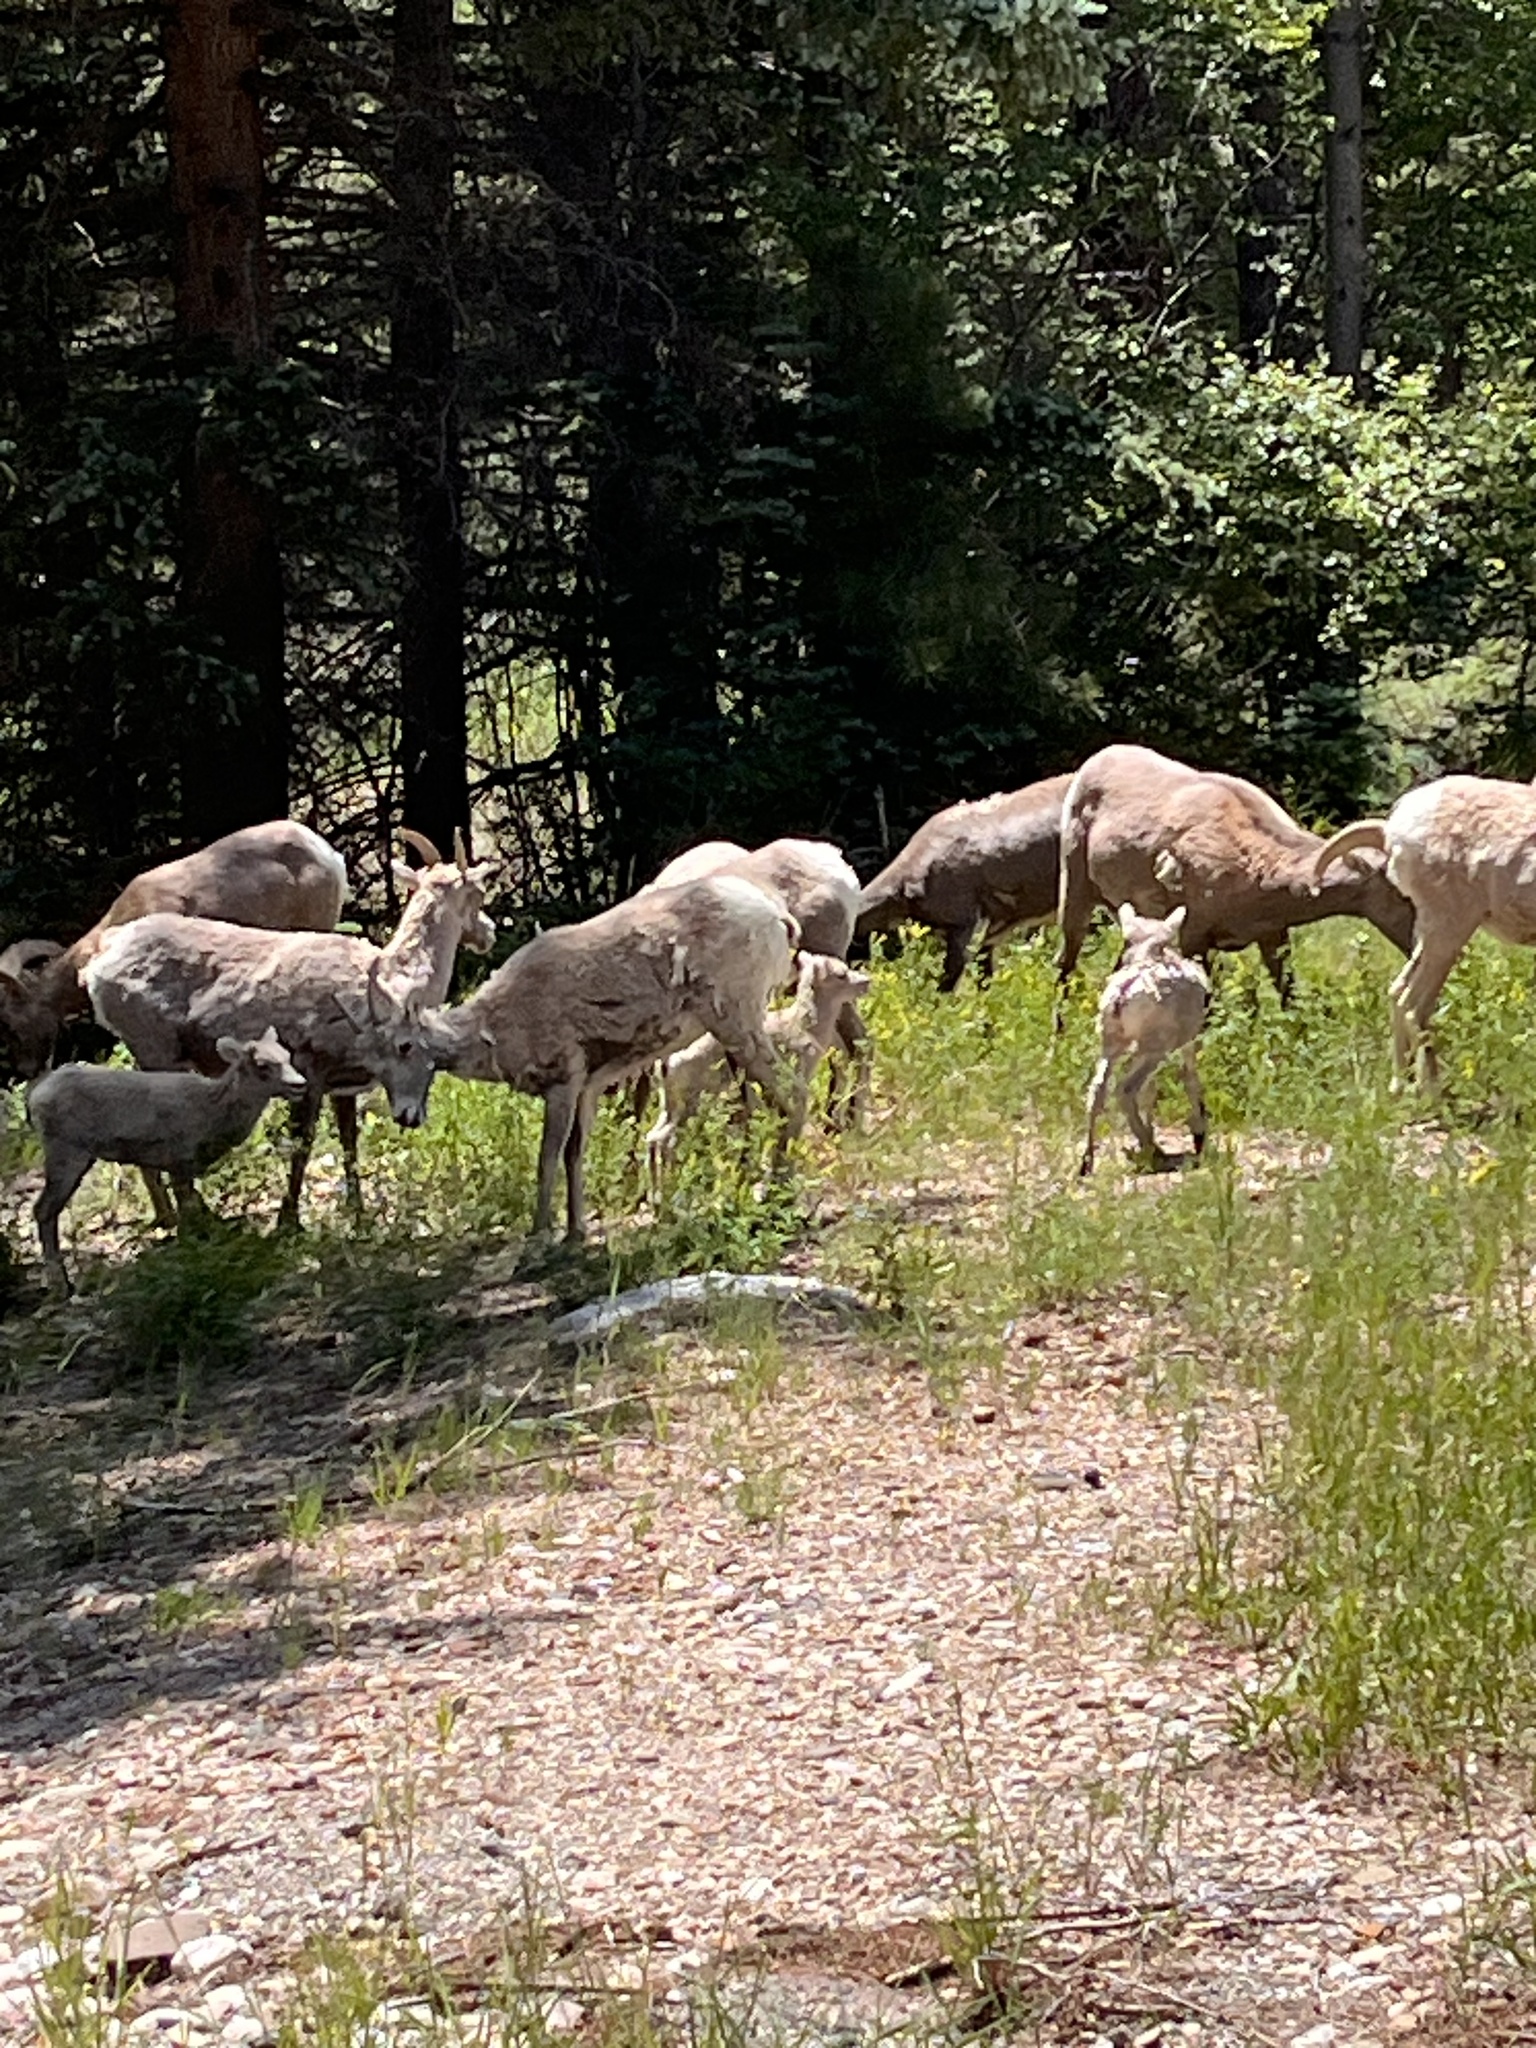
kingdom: Animalia
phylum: Chordata
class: Mammalia
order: Artiodactyla
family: Bovidae
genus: Ovis
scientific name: Ovis canadensis
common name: Bighorn sheep
